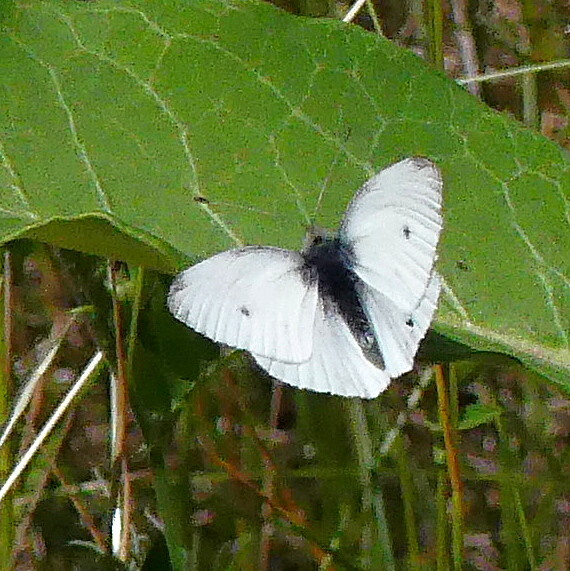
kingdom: Animalia
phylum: Arthropoda
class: Insecta
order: Lepidoptera
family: Pieridae
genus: Pieris
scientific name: Pieris rapae
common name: Small white
